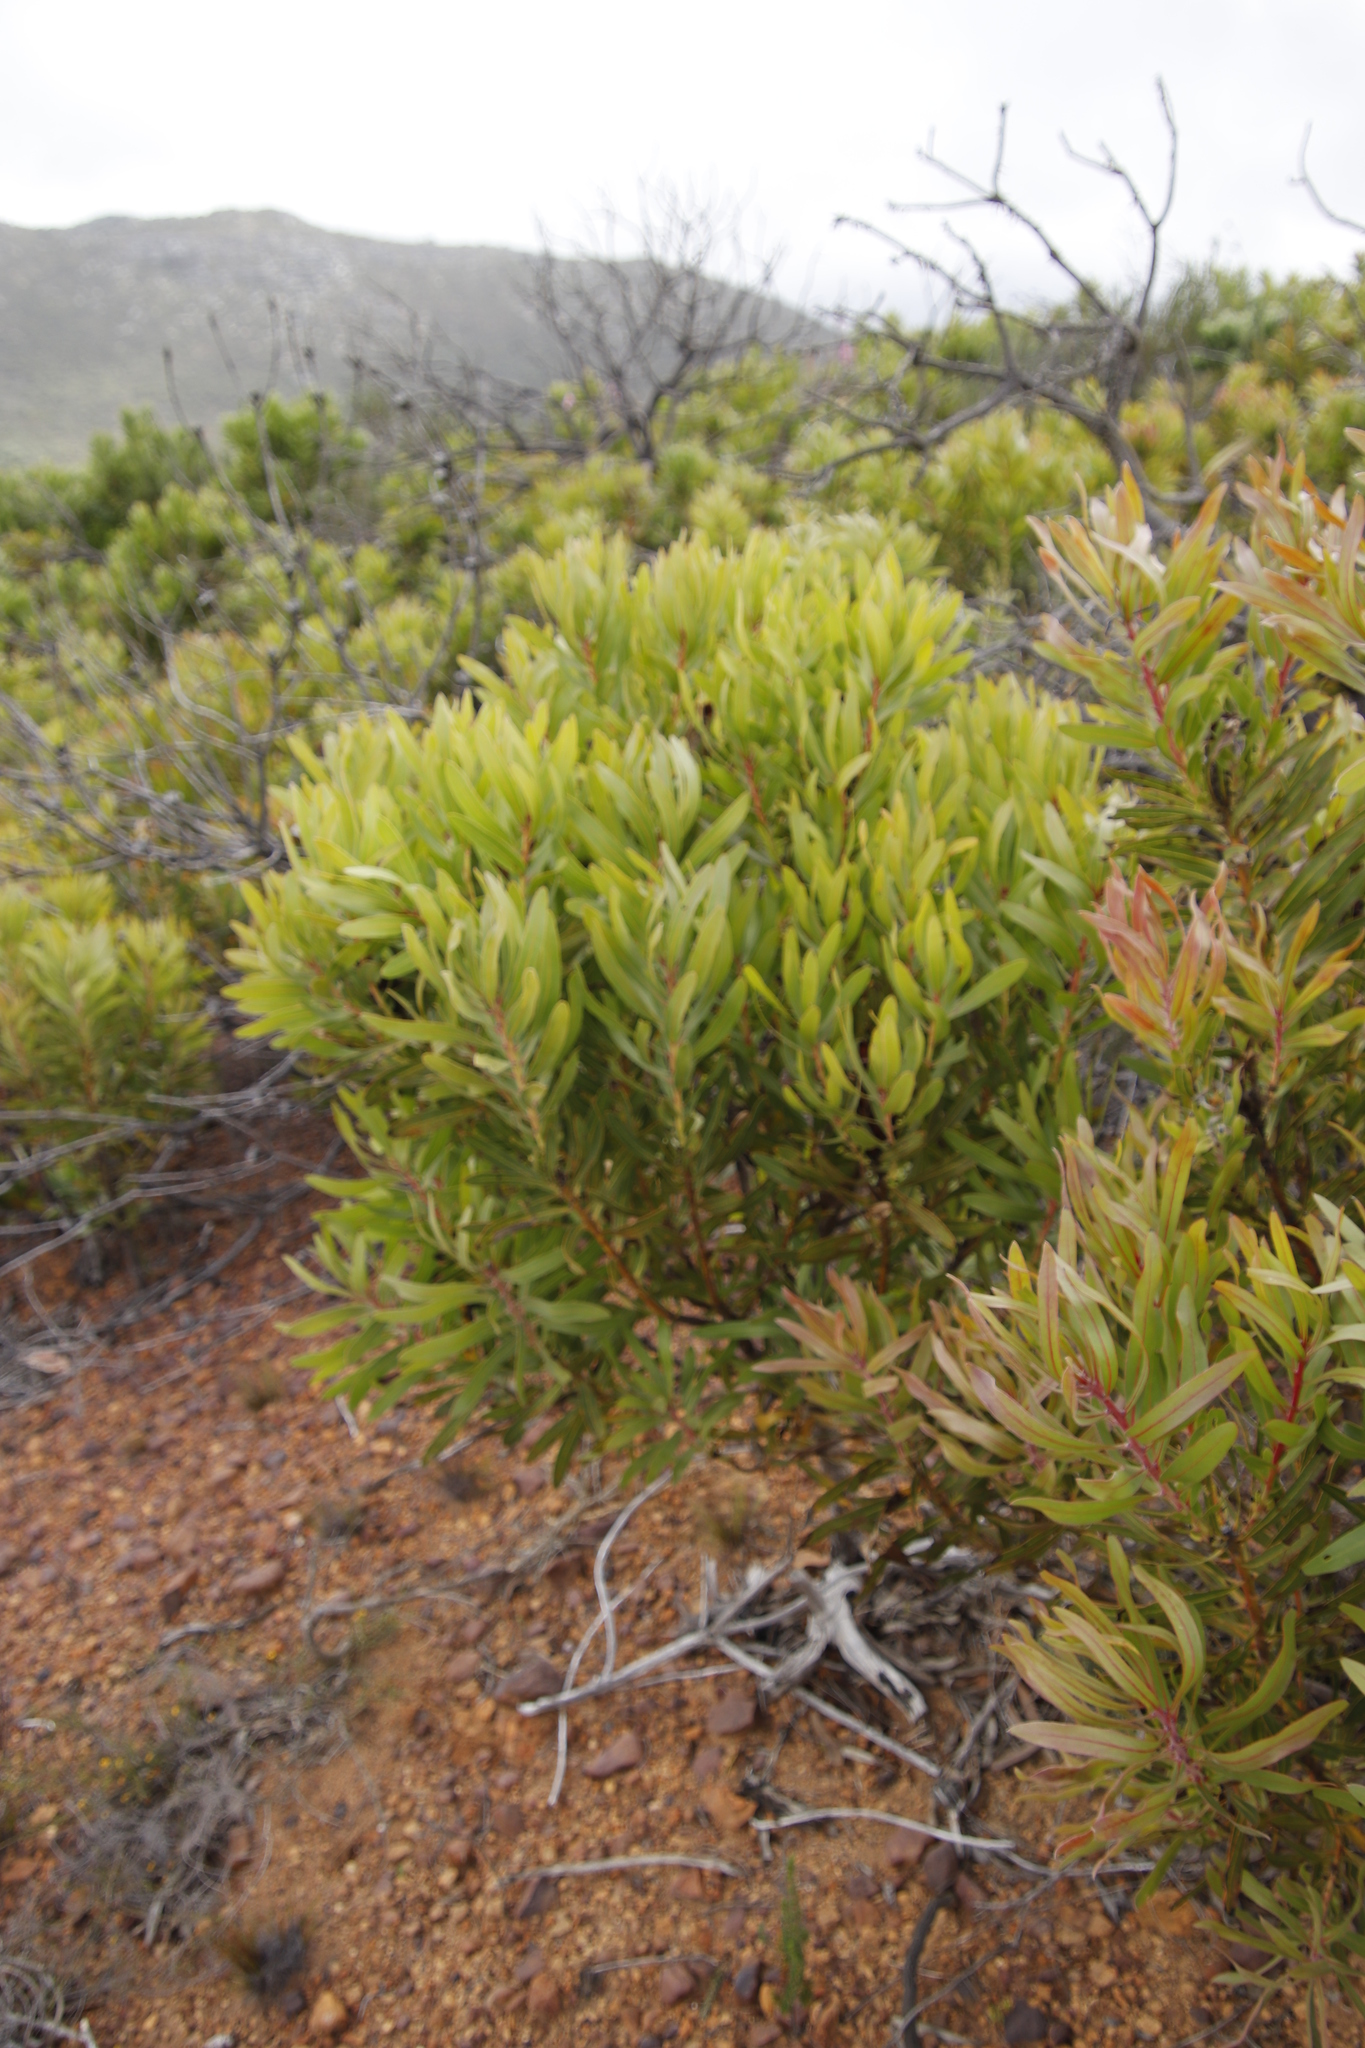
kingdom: Plantae
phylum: Tracheophyta
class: Magnoliopsida
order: Proteales
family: Proteaceae
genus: Protea
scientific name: Protea
